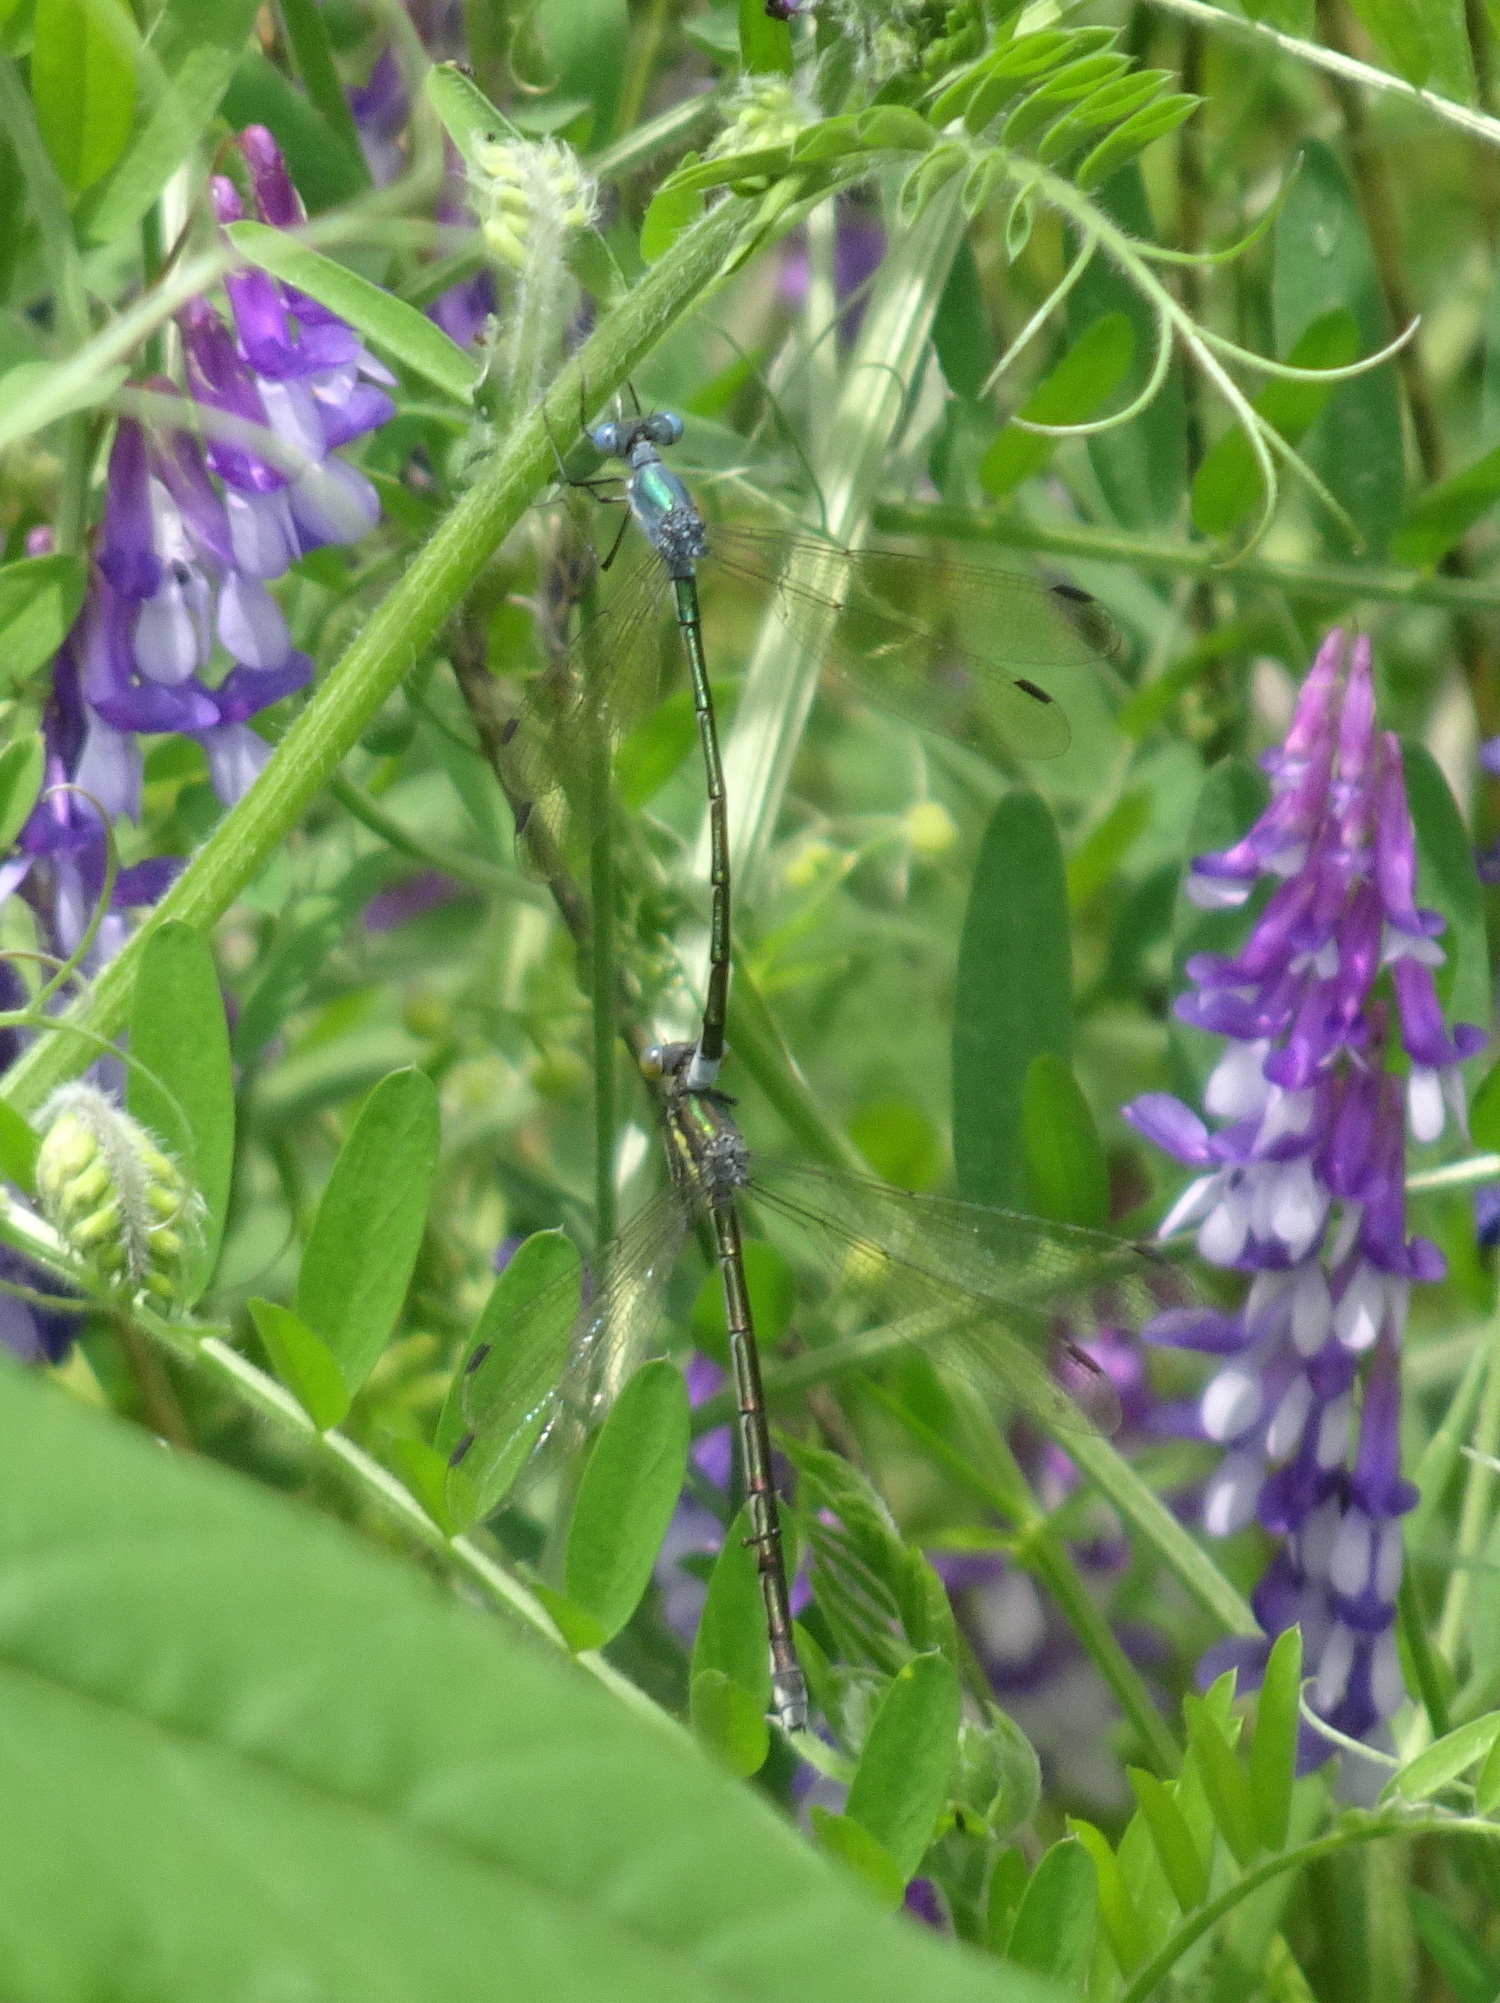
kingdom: Animalia
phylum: Arthropoda
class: Insecta
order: Odonata
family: Lestidae
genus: Lestes
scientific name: Lestes eurinus
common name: Amber-winged spreadwing
